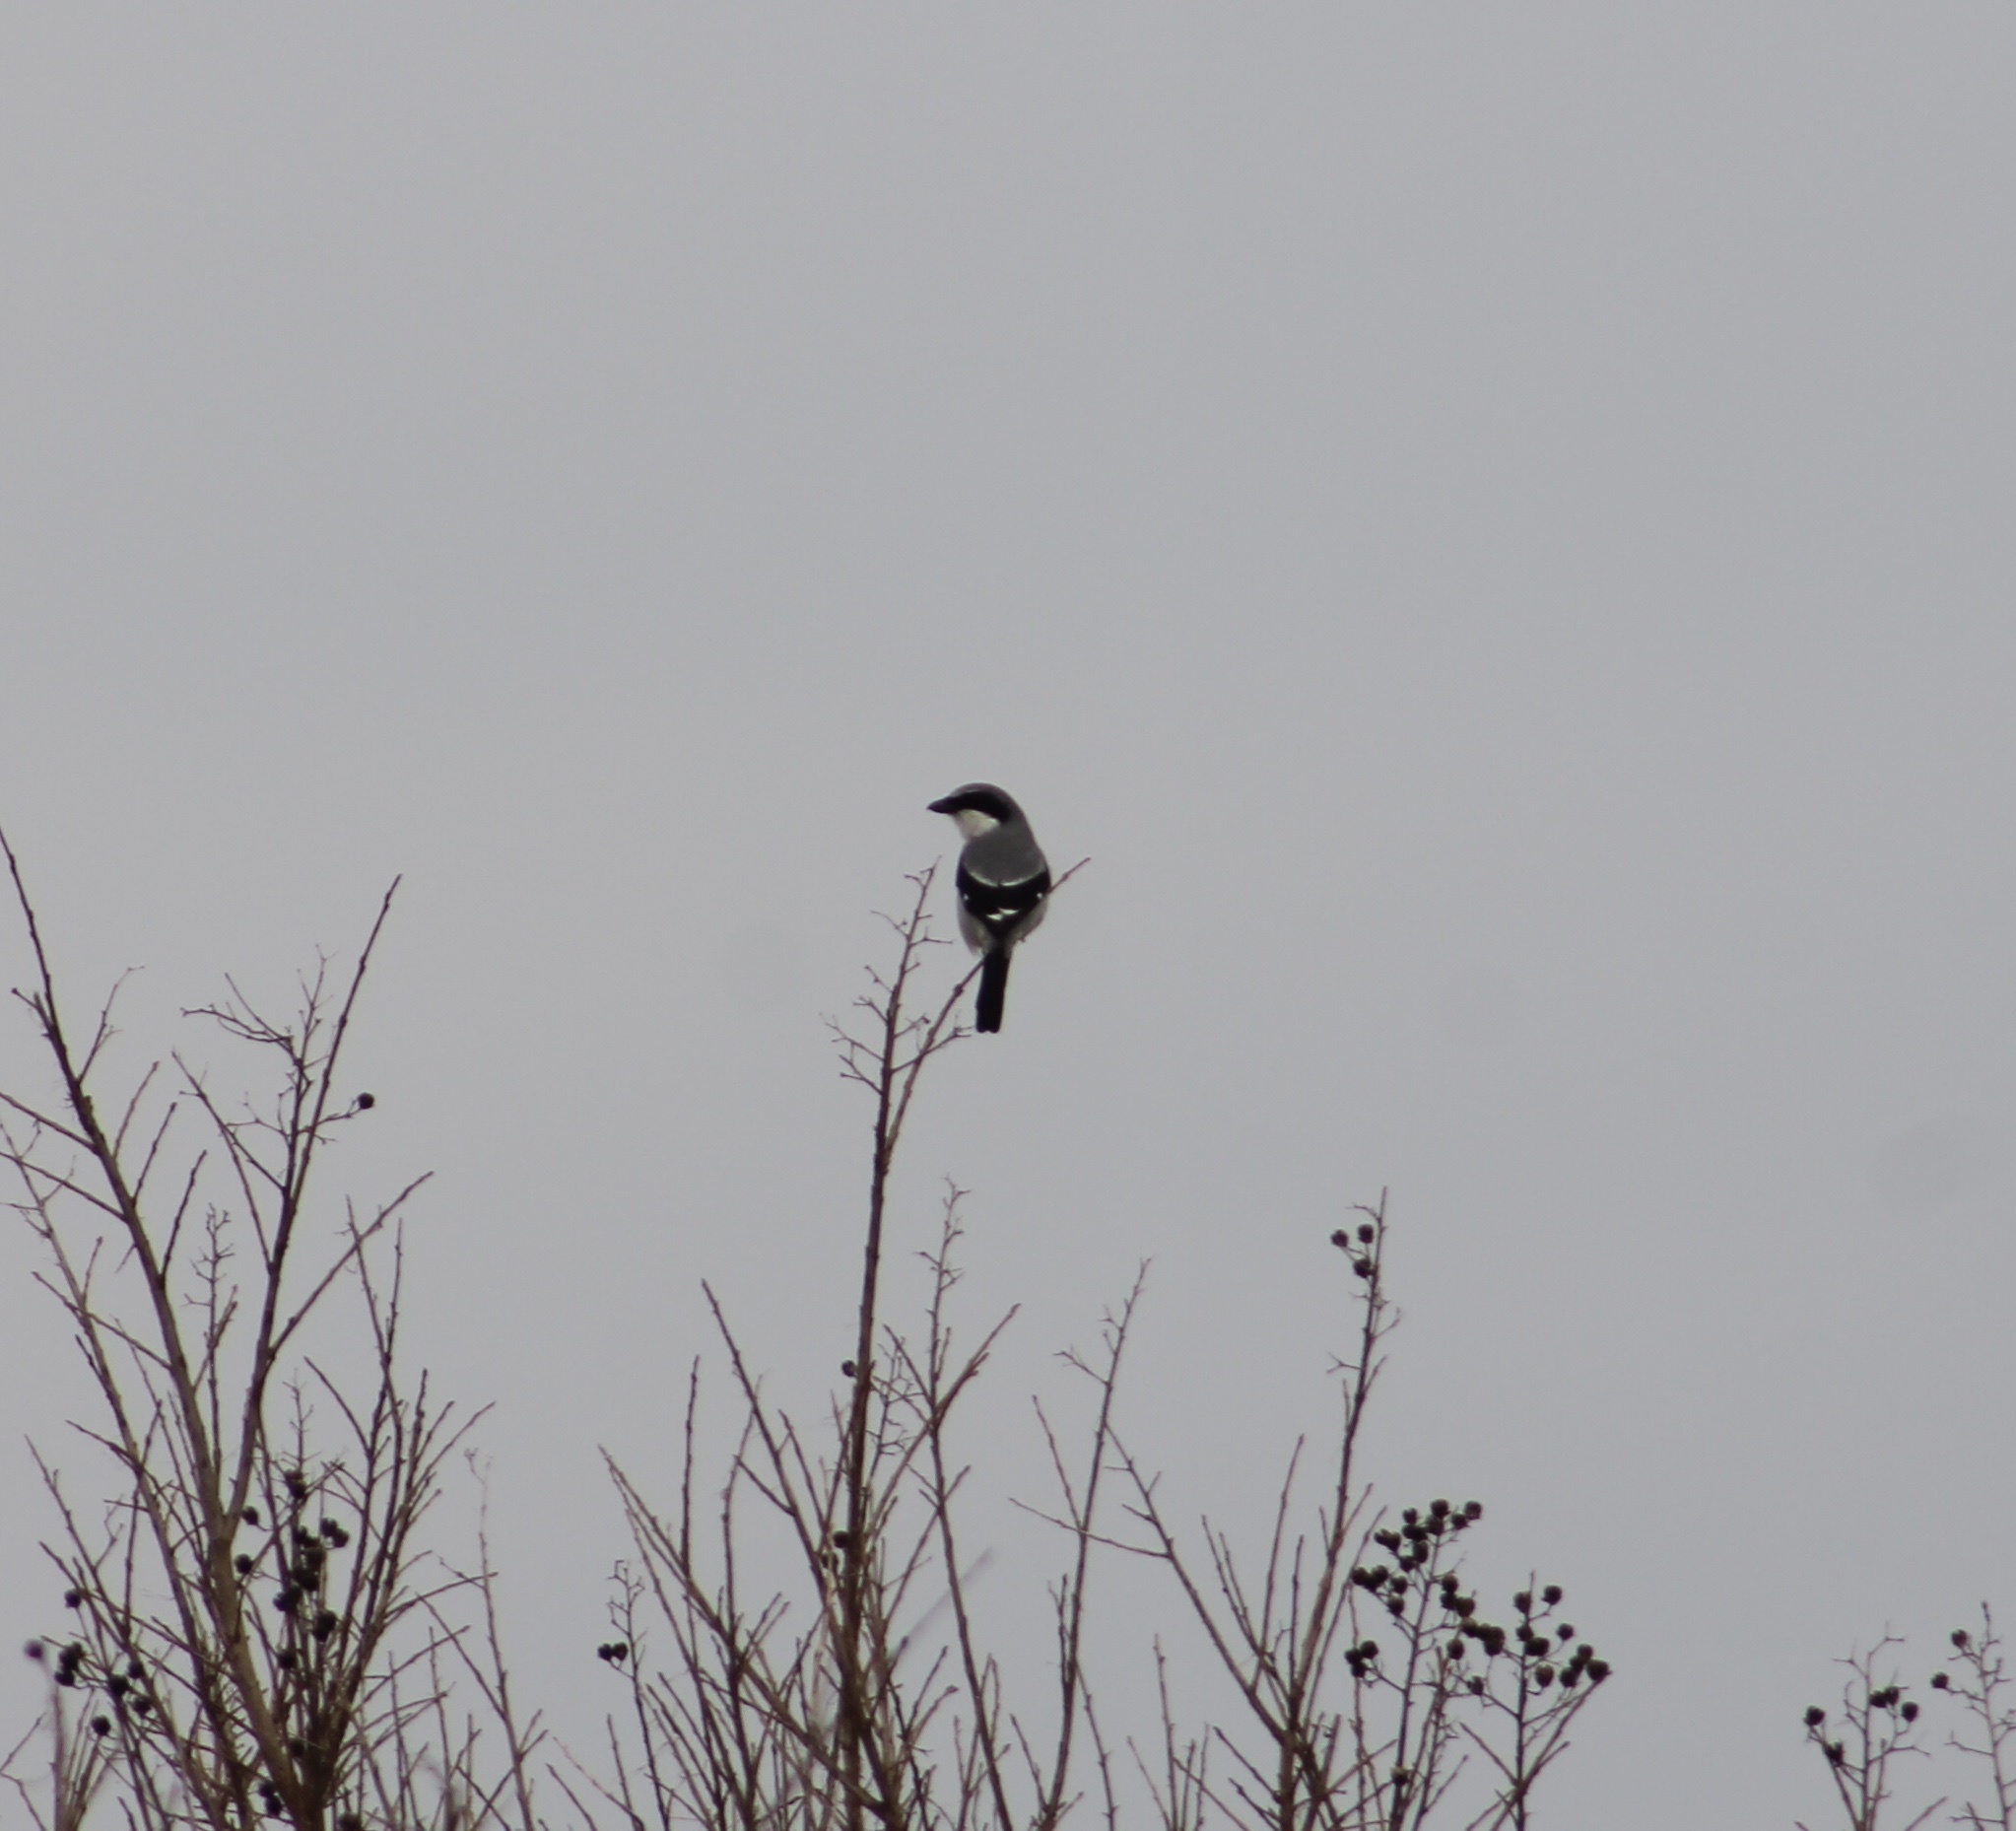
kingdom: Animalia
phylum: Chordata
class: Aves
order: Passeriformes
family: Laniidae
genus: Lanius
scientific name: Lanius ludovicianus
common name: Loggerhead shrike
